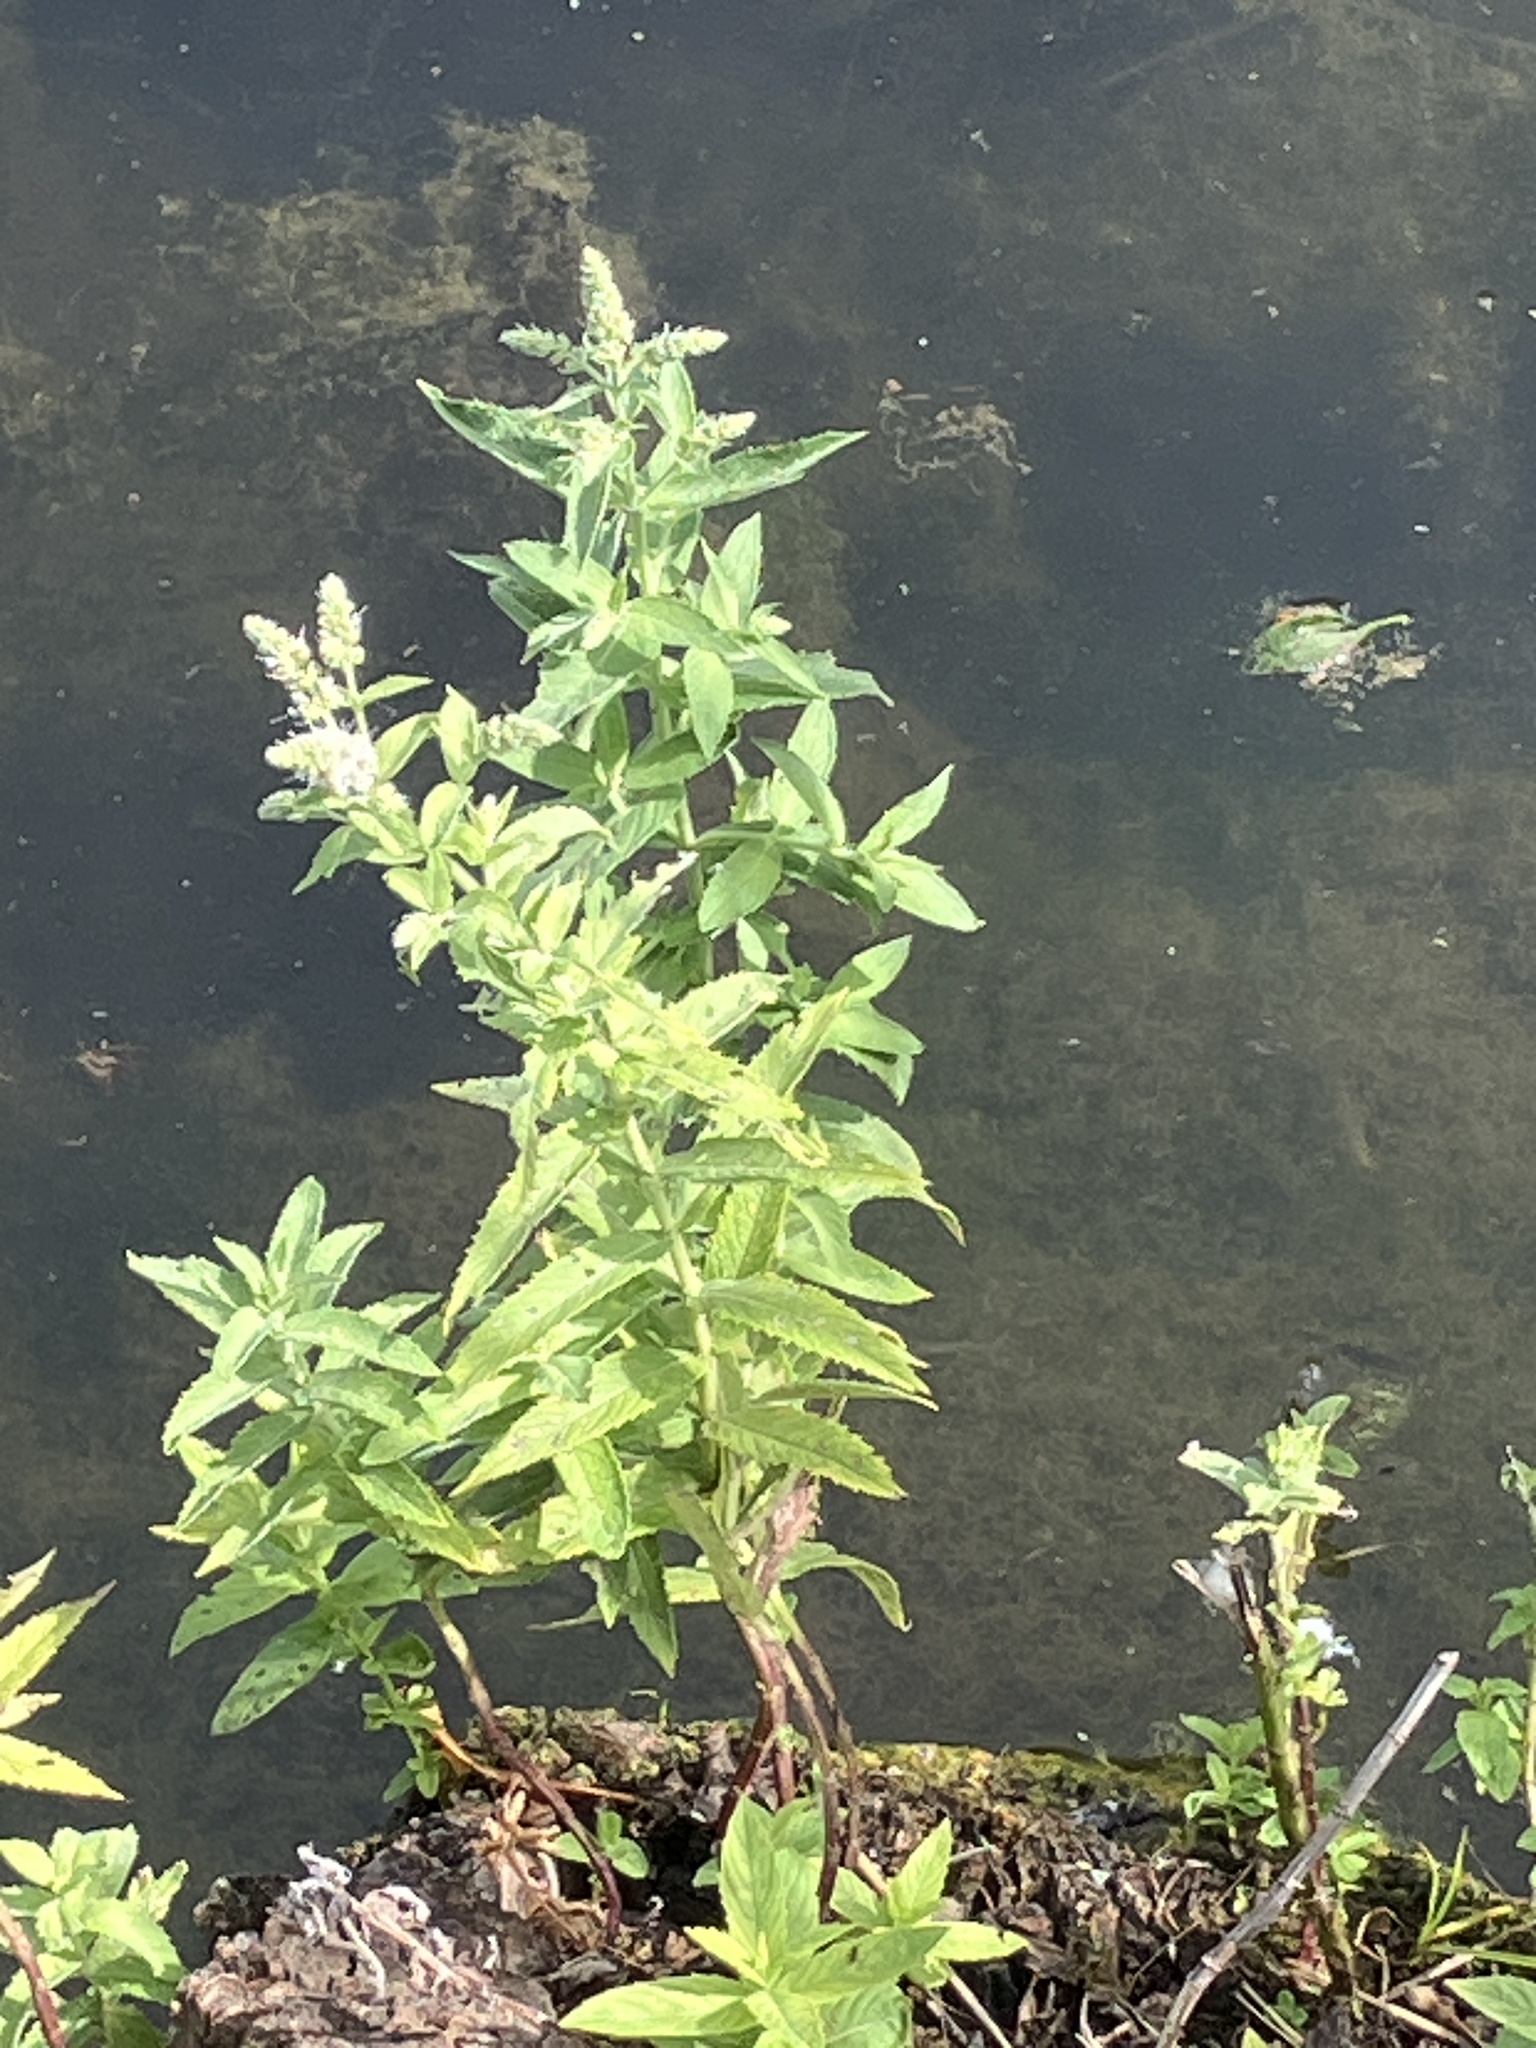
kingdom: Plantae
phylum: Tracheophyta
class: Magnoliopsida
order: Lamiales
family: Lamiaceae
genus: Mentha
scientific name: Mentha longifolia
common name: Horse mint
